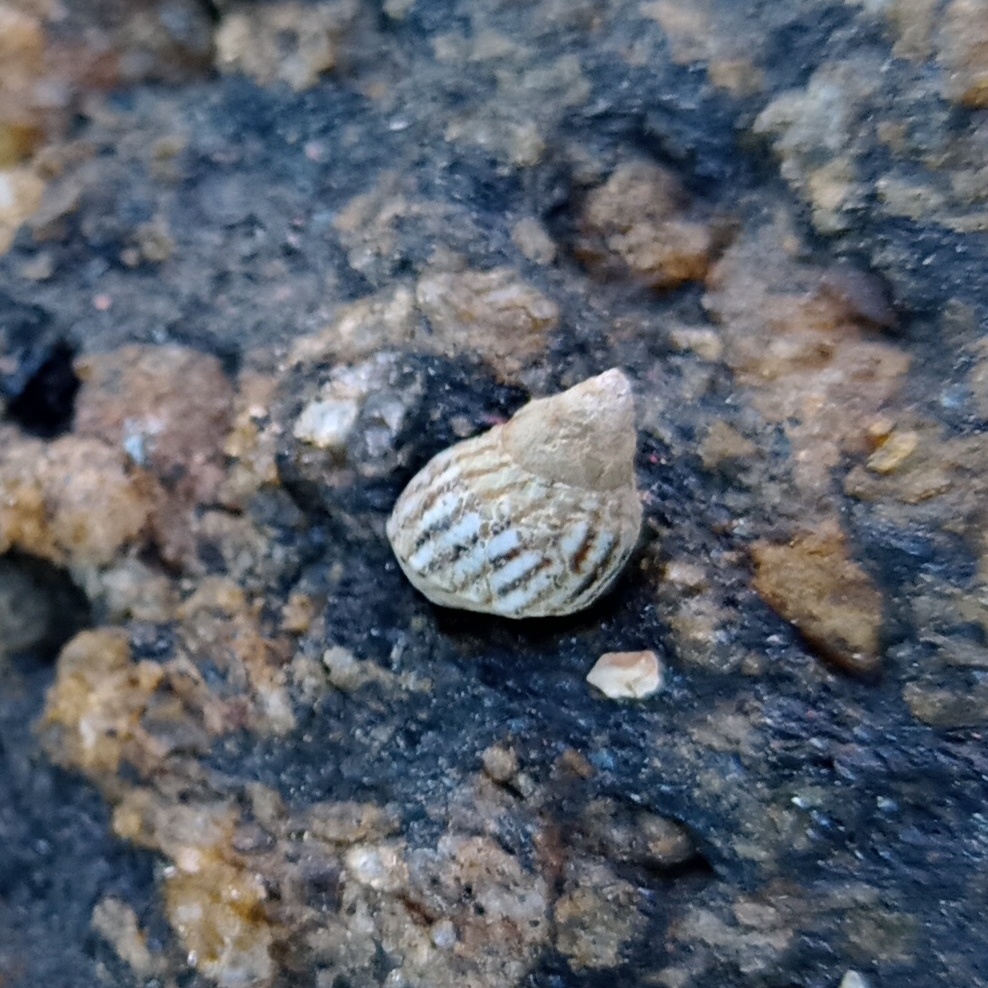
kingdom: Animalia
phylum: Mollusca
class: Gastropoda
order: Littorinimorpha
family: Littorinidae
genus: Echinolittorina
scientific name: Echinolittorina lineolata
